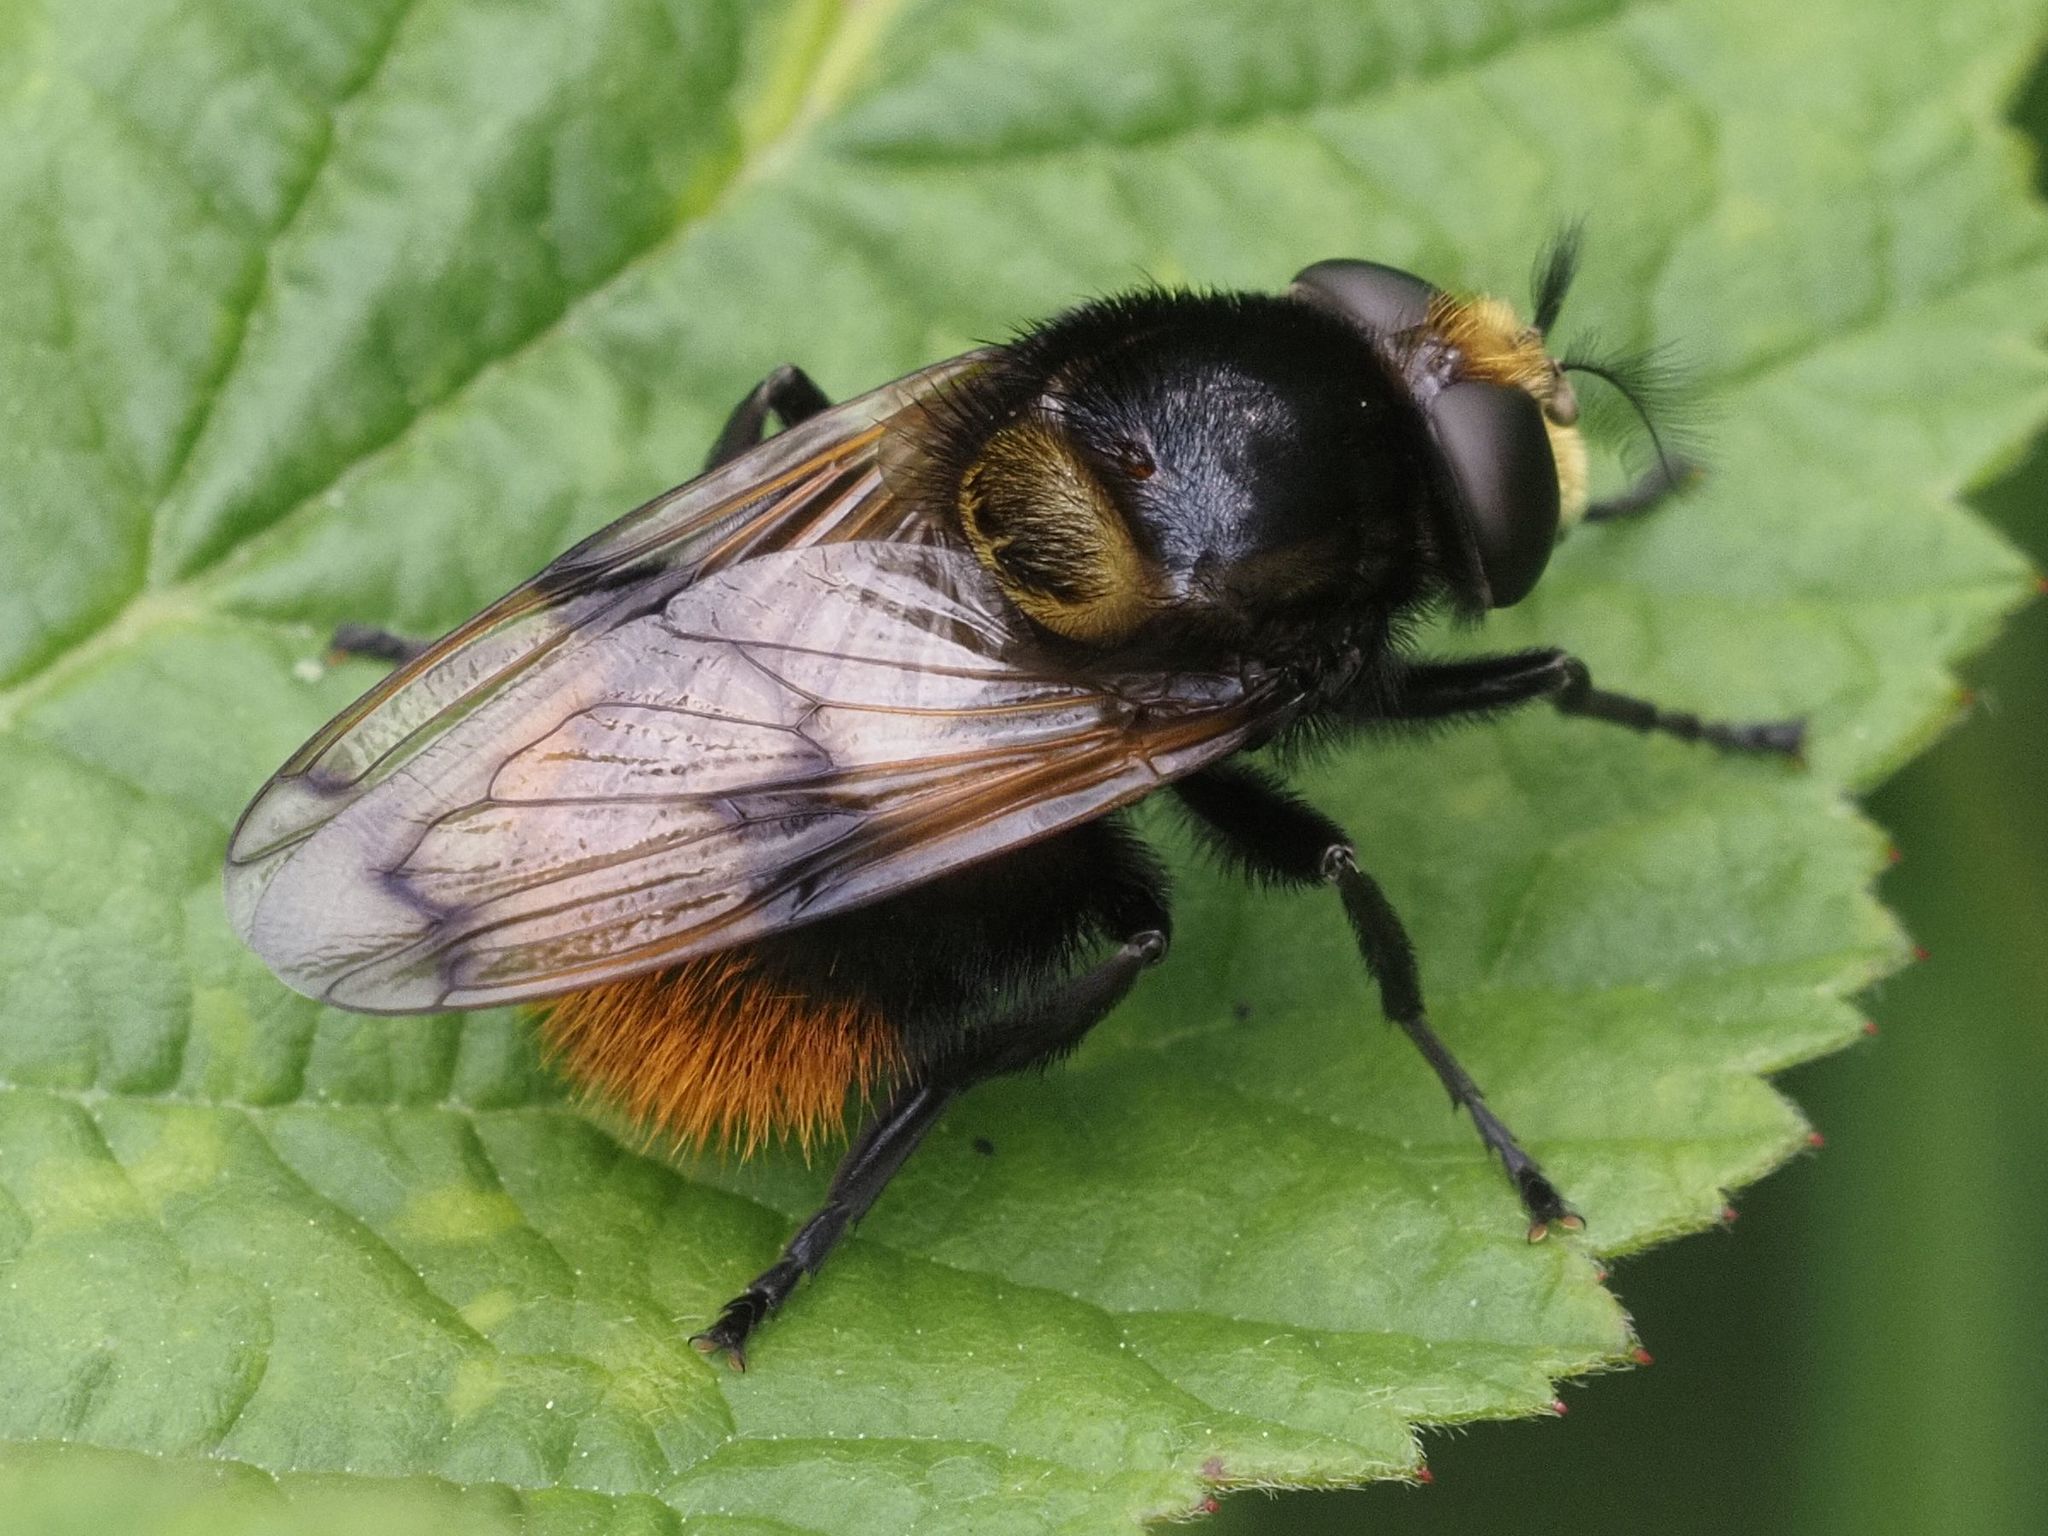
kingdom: Animalia
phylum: Arthropoda
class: Insecta
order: Diptera
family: Syrphidae
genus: Volucella
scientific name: Volucella bombylans
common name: Bumble bee hover fly
